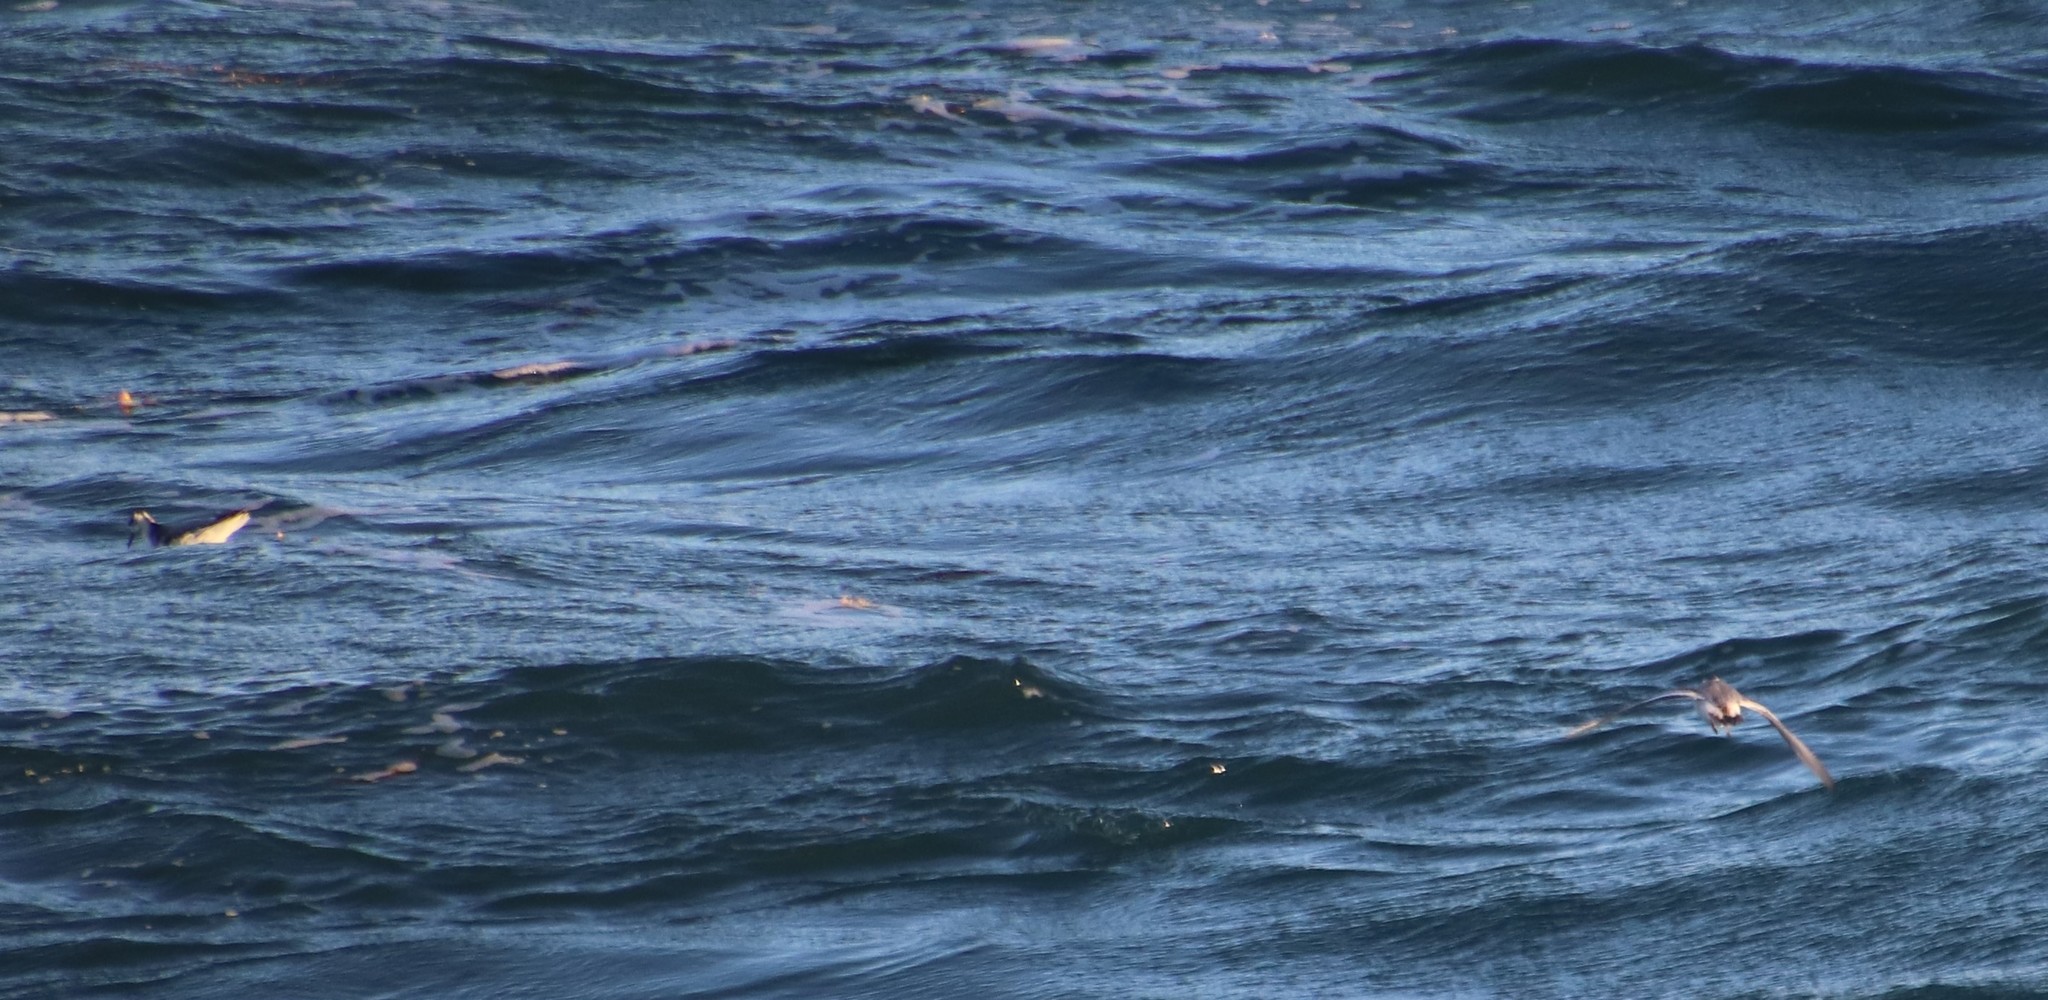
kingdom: Animalia
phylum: Chordata
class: Aves
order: Charadriiformes
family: Scolopacidae
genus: Phalaropus
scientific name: Phalaropus fulicarius
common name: Red phalarope
